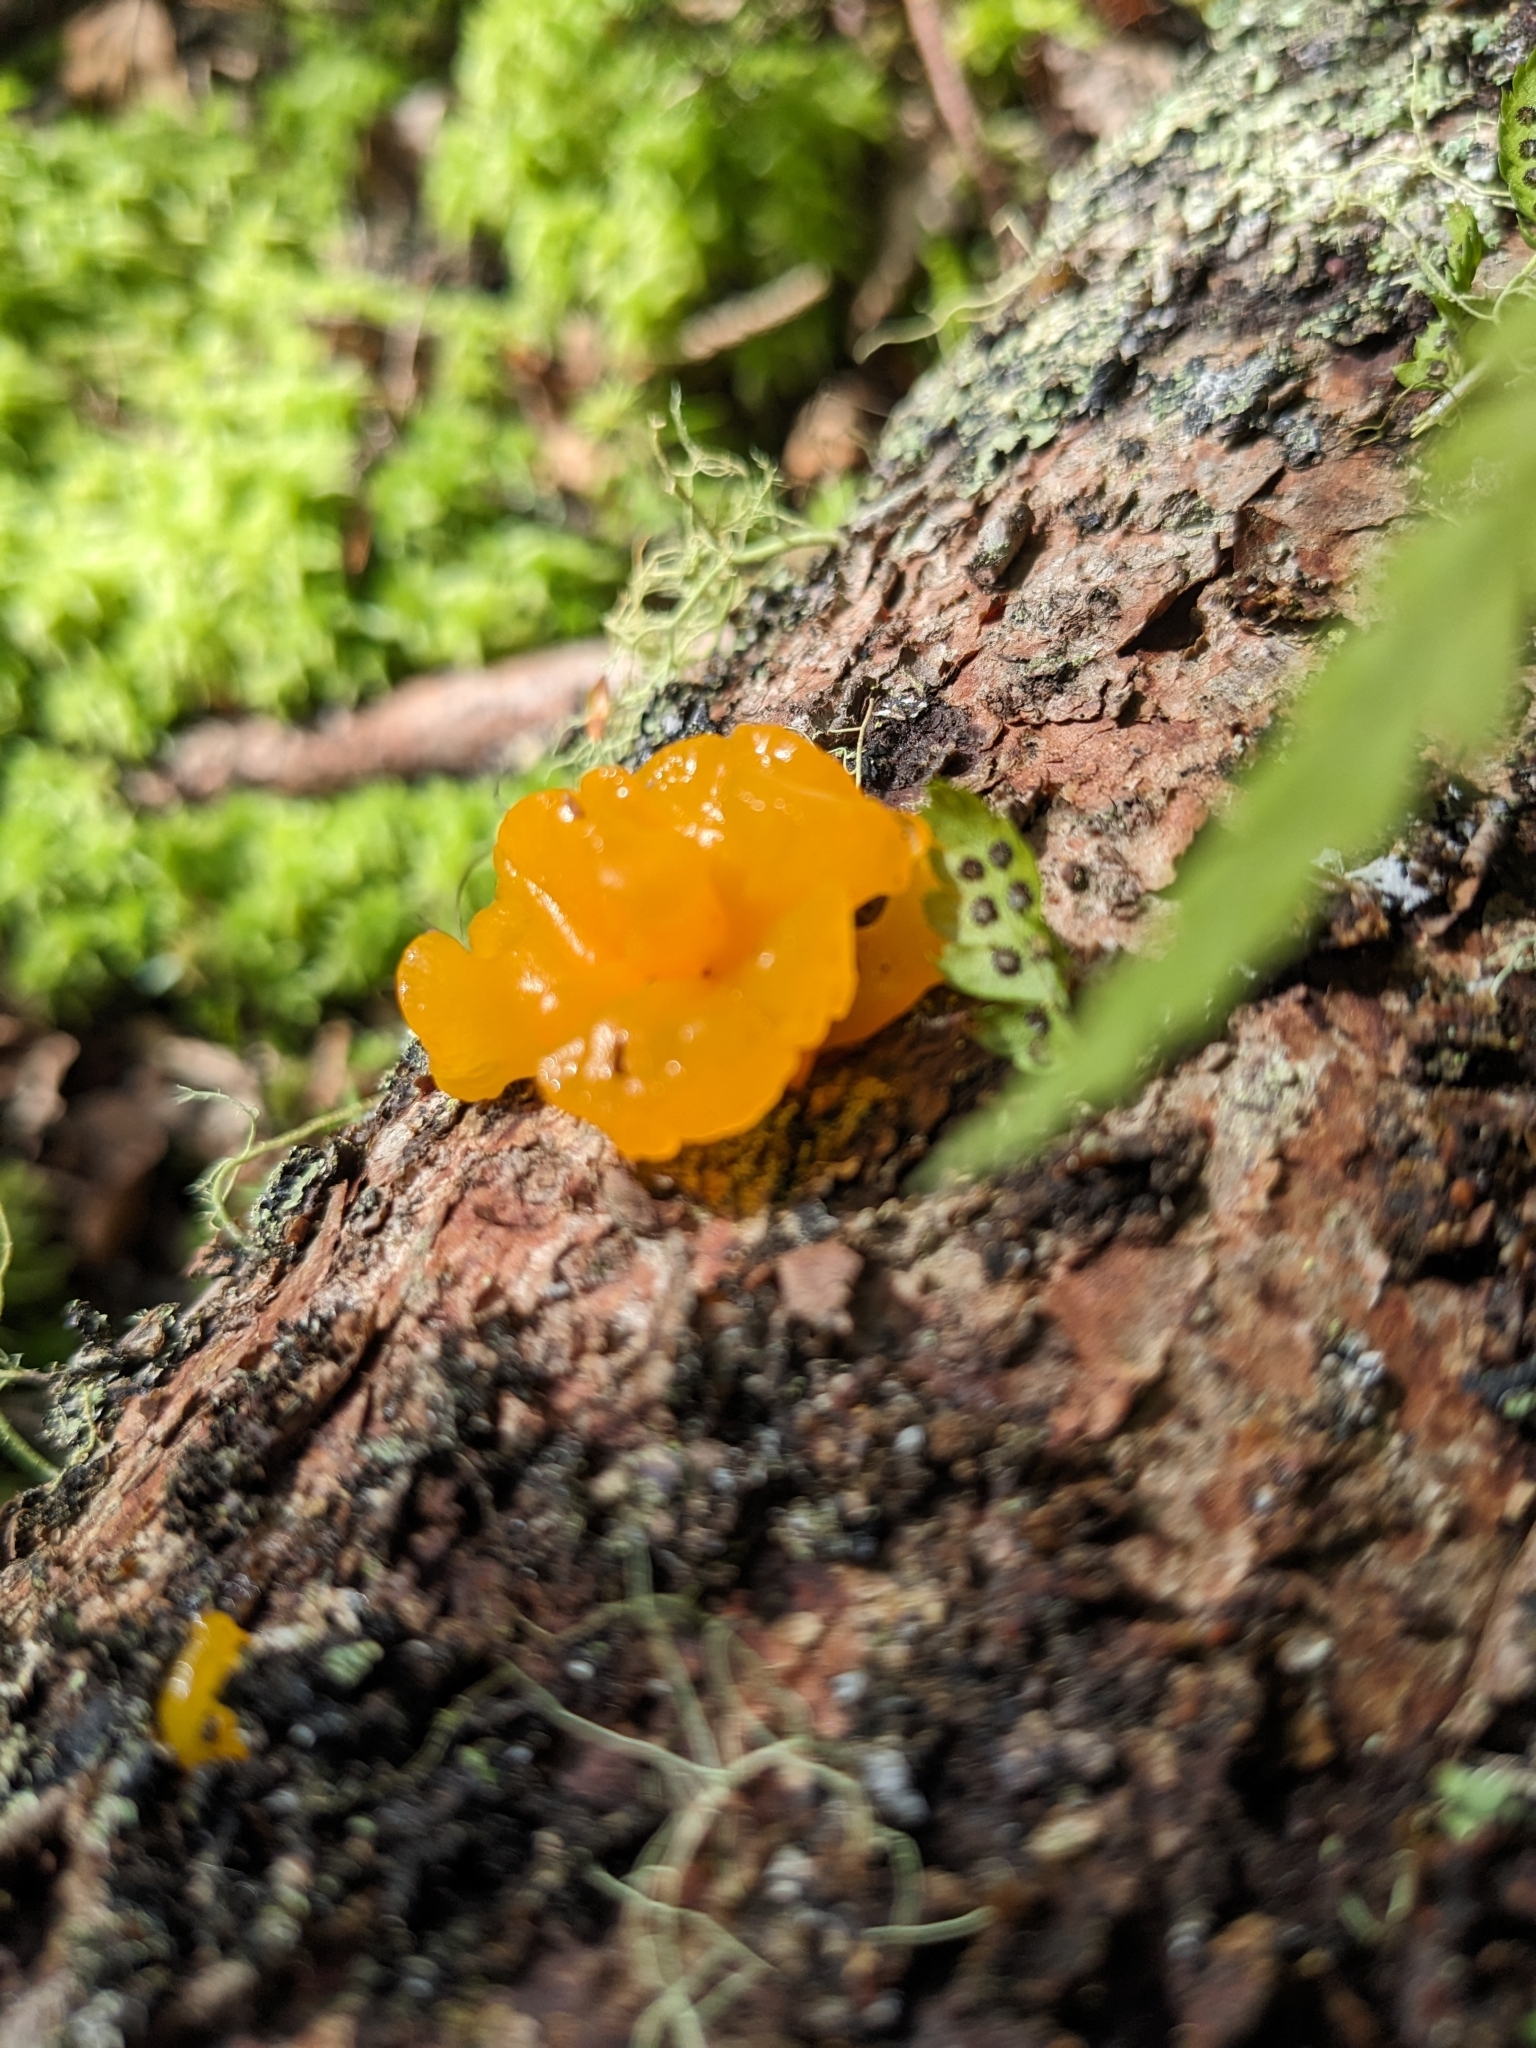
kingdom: Fungi
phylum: Basidiomycota
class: Dacrymycetes
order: Dacrymycetales
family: Dacrymycetaceae
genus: Dacrymyces
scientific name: Dacrymyces chrysospermus
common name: Orange jelly spot
